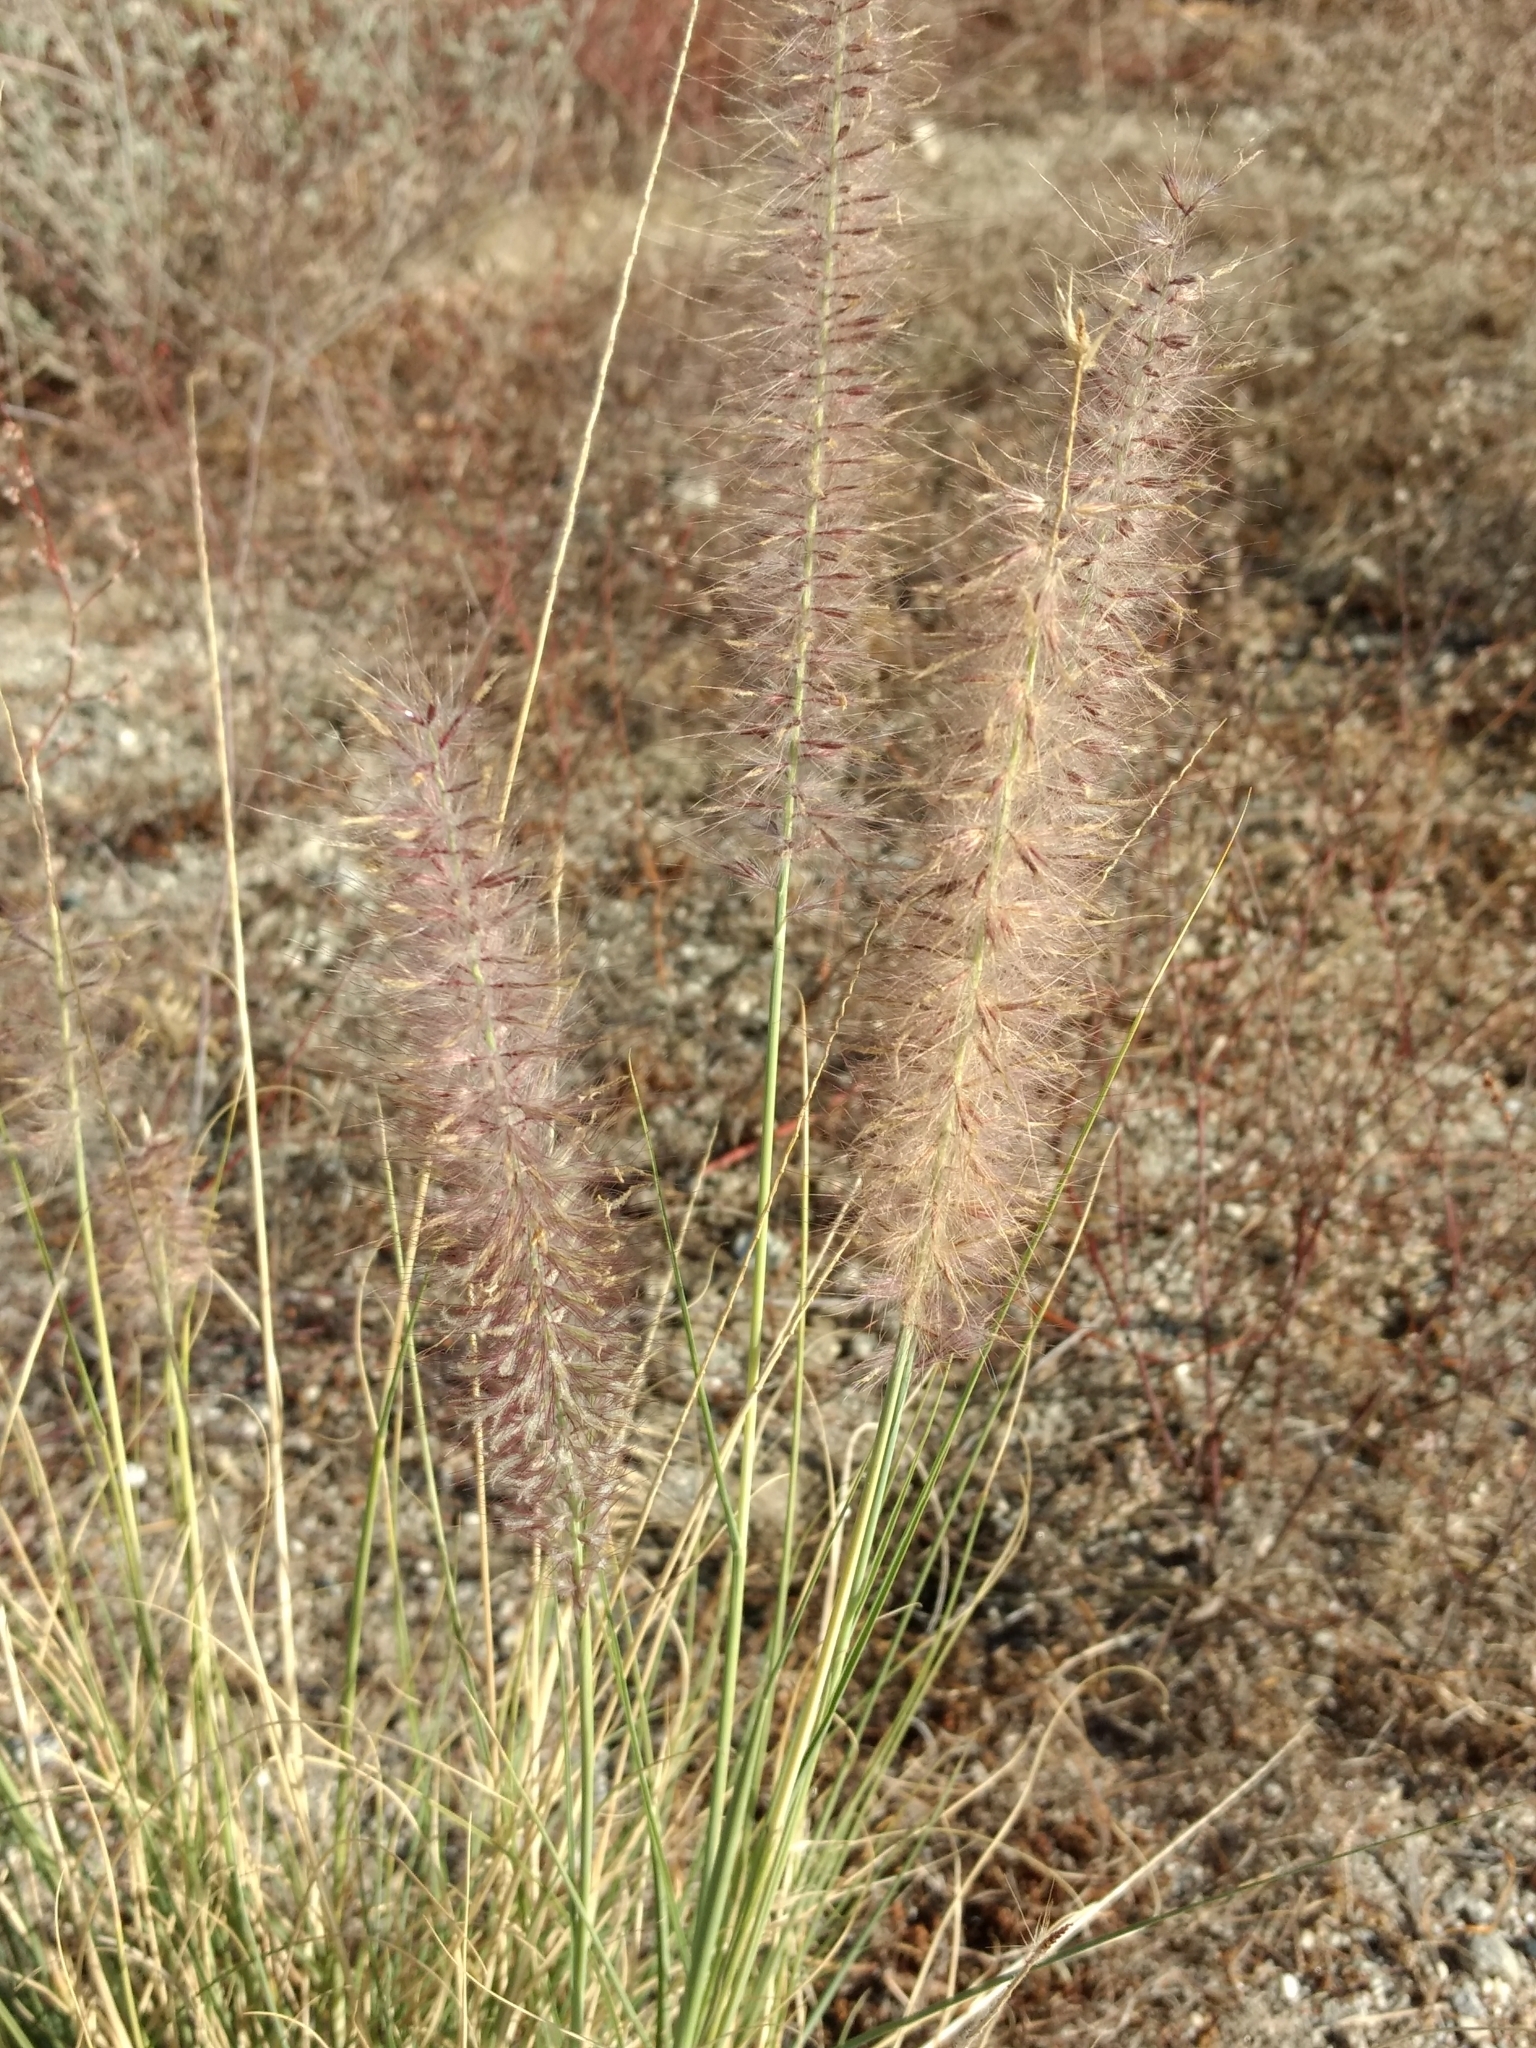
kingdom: Plantae
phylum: Tracheophyta
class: Liliopsida
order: Poales
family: Poaceae
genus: Cenchrus
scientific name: Cenchrus setaceus
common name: Crimson fountaingrass
